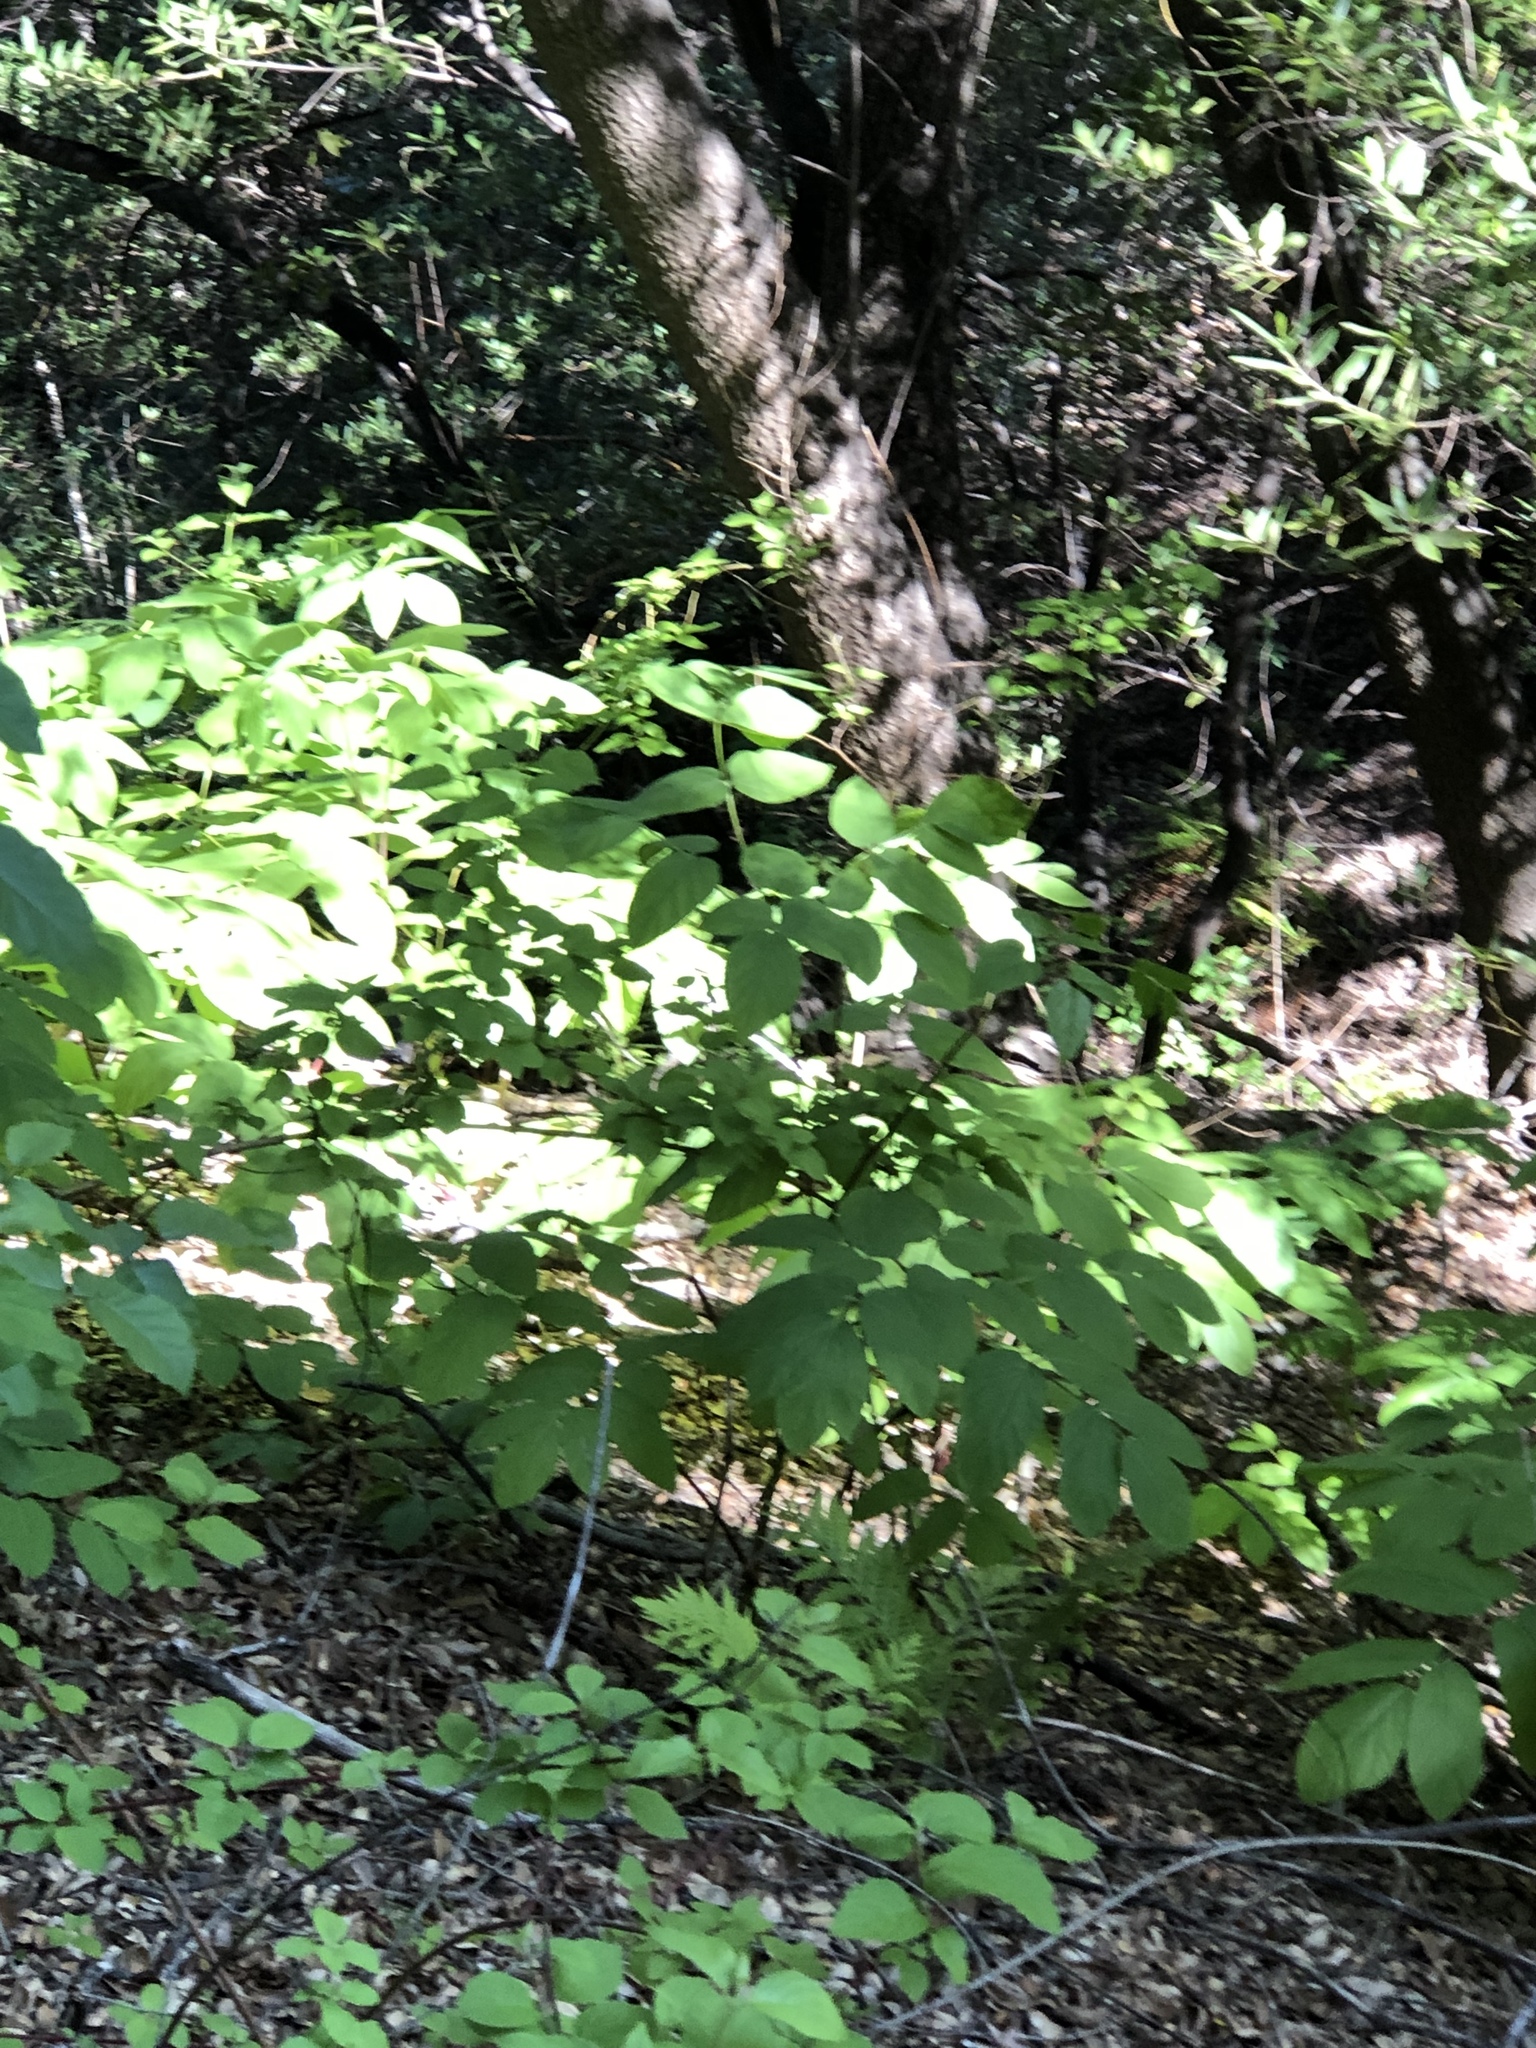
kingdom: Plantae
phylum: Tracheophyta
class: Magnoliopsida
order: Apiales
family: Araliaceae
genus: Aralia
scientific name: Aralia californica
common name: California-ginseng
